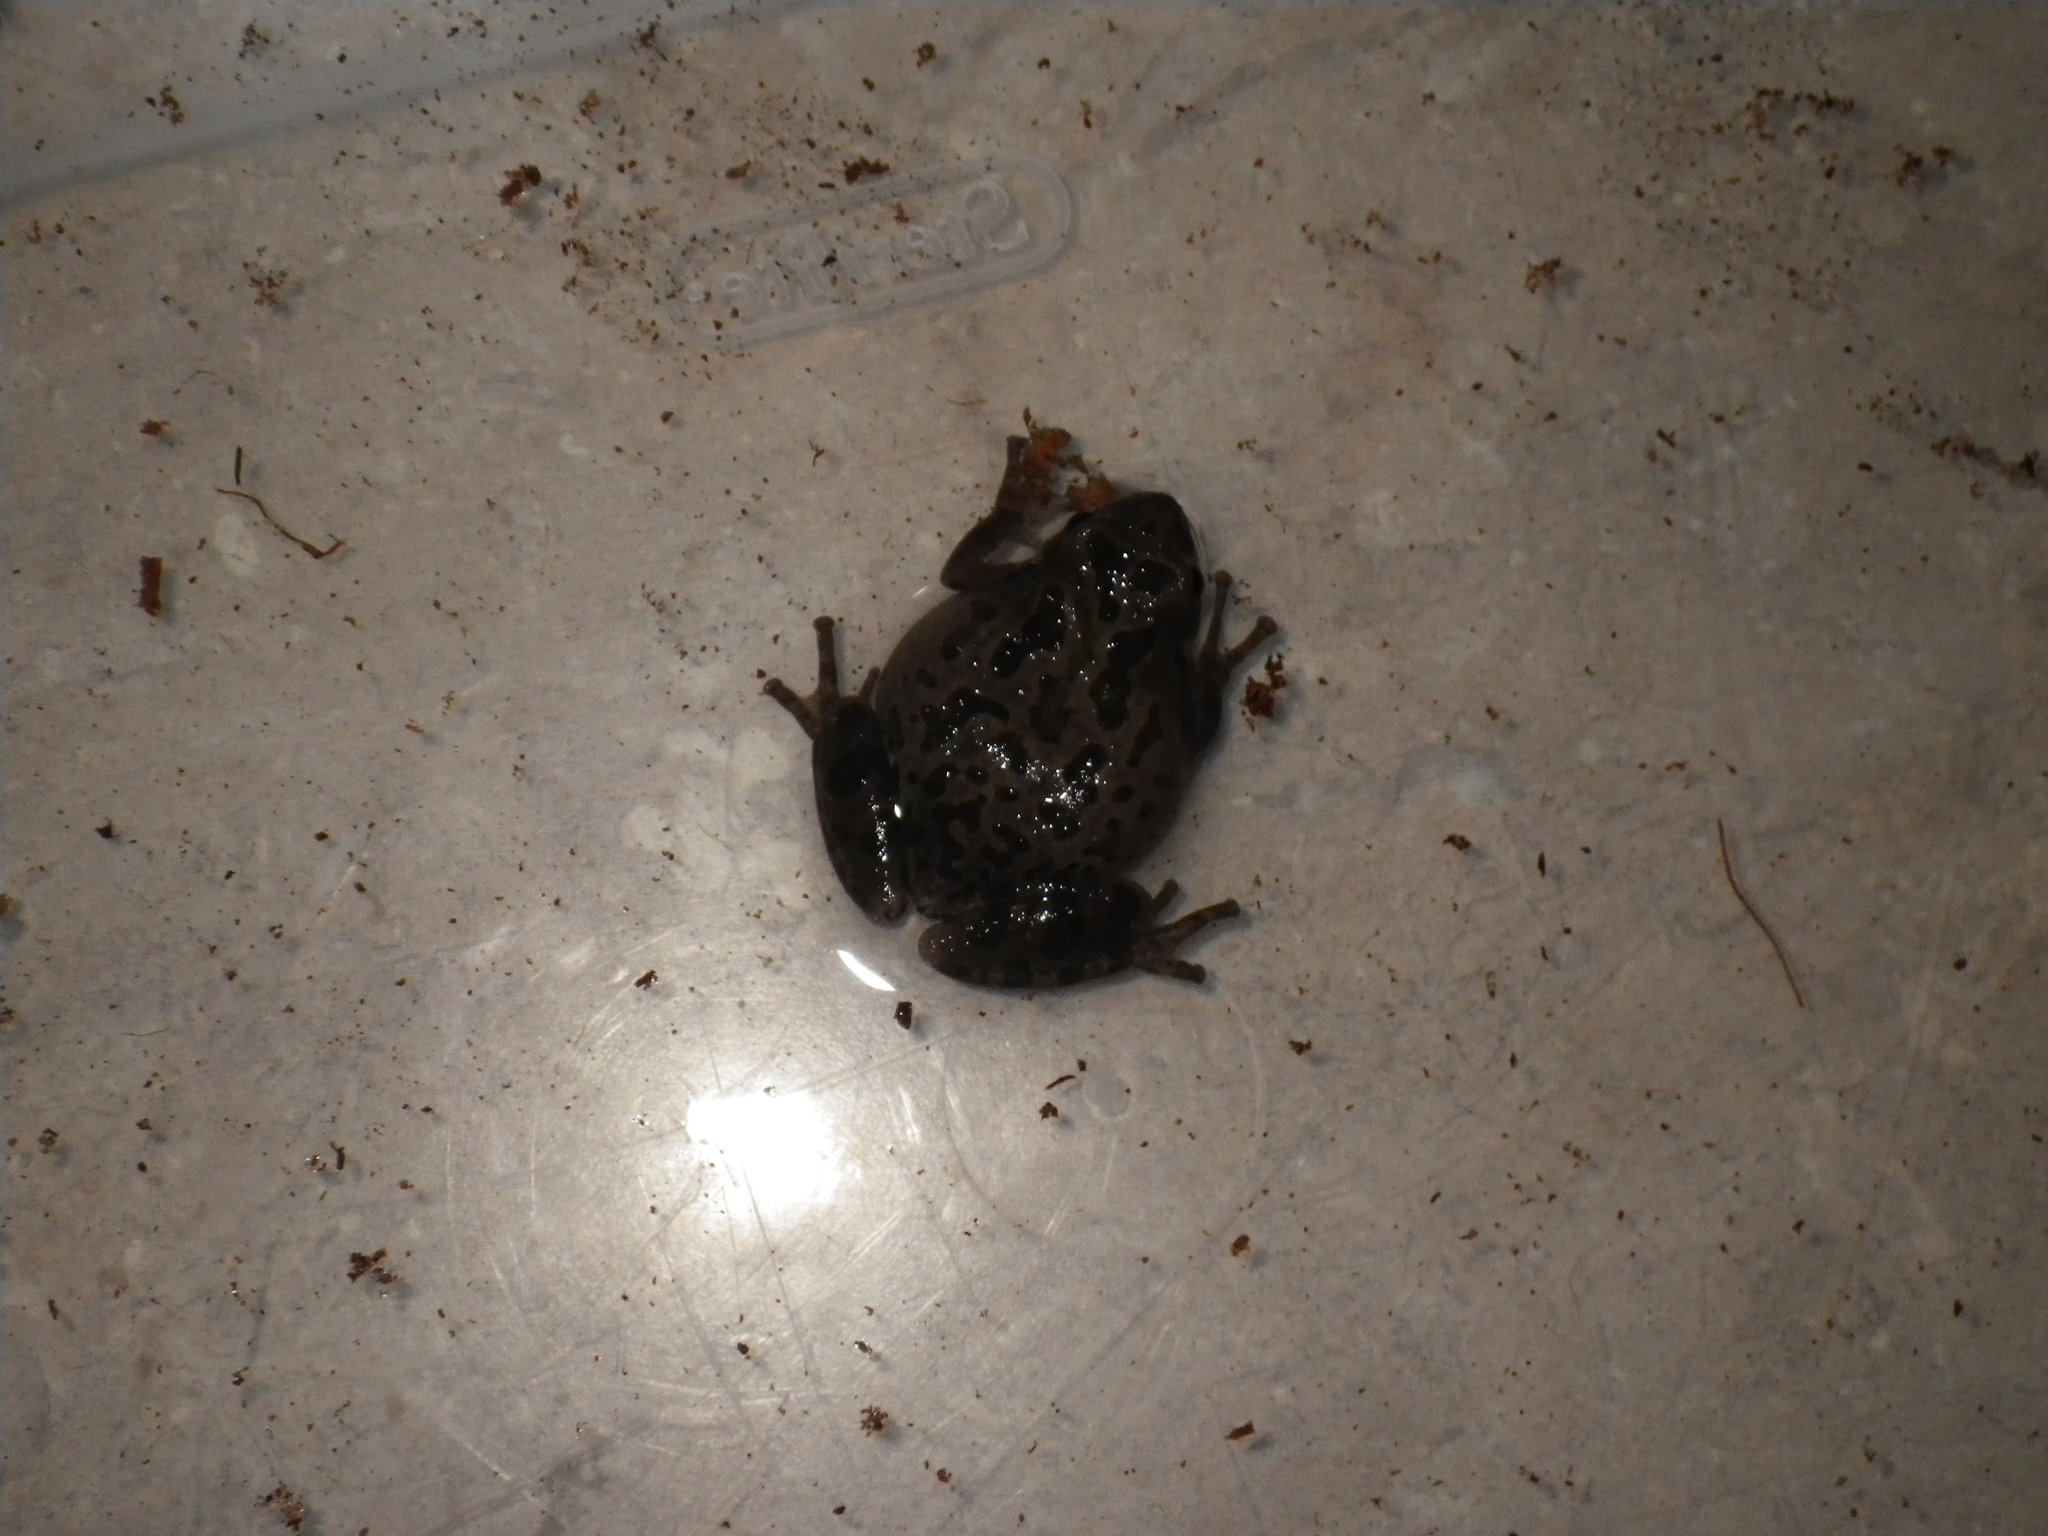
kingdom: Animalia
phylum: Chordata
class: Amphibia
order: Anura
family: Hylidae
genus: Pseudacris
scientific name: Pseudacris regilla
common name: Pacific chorus frog
